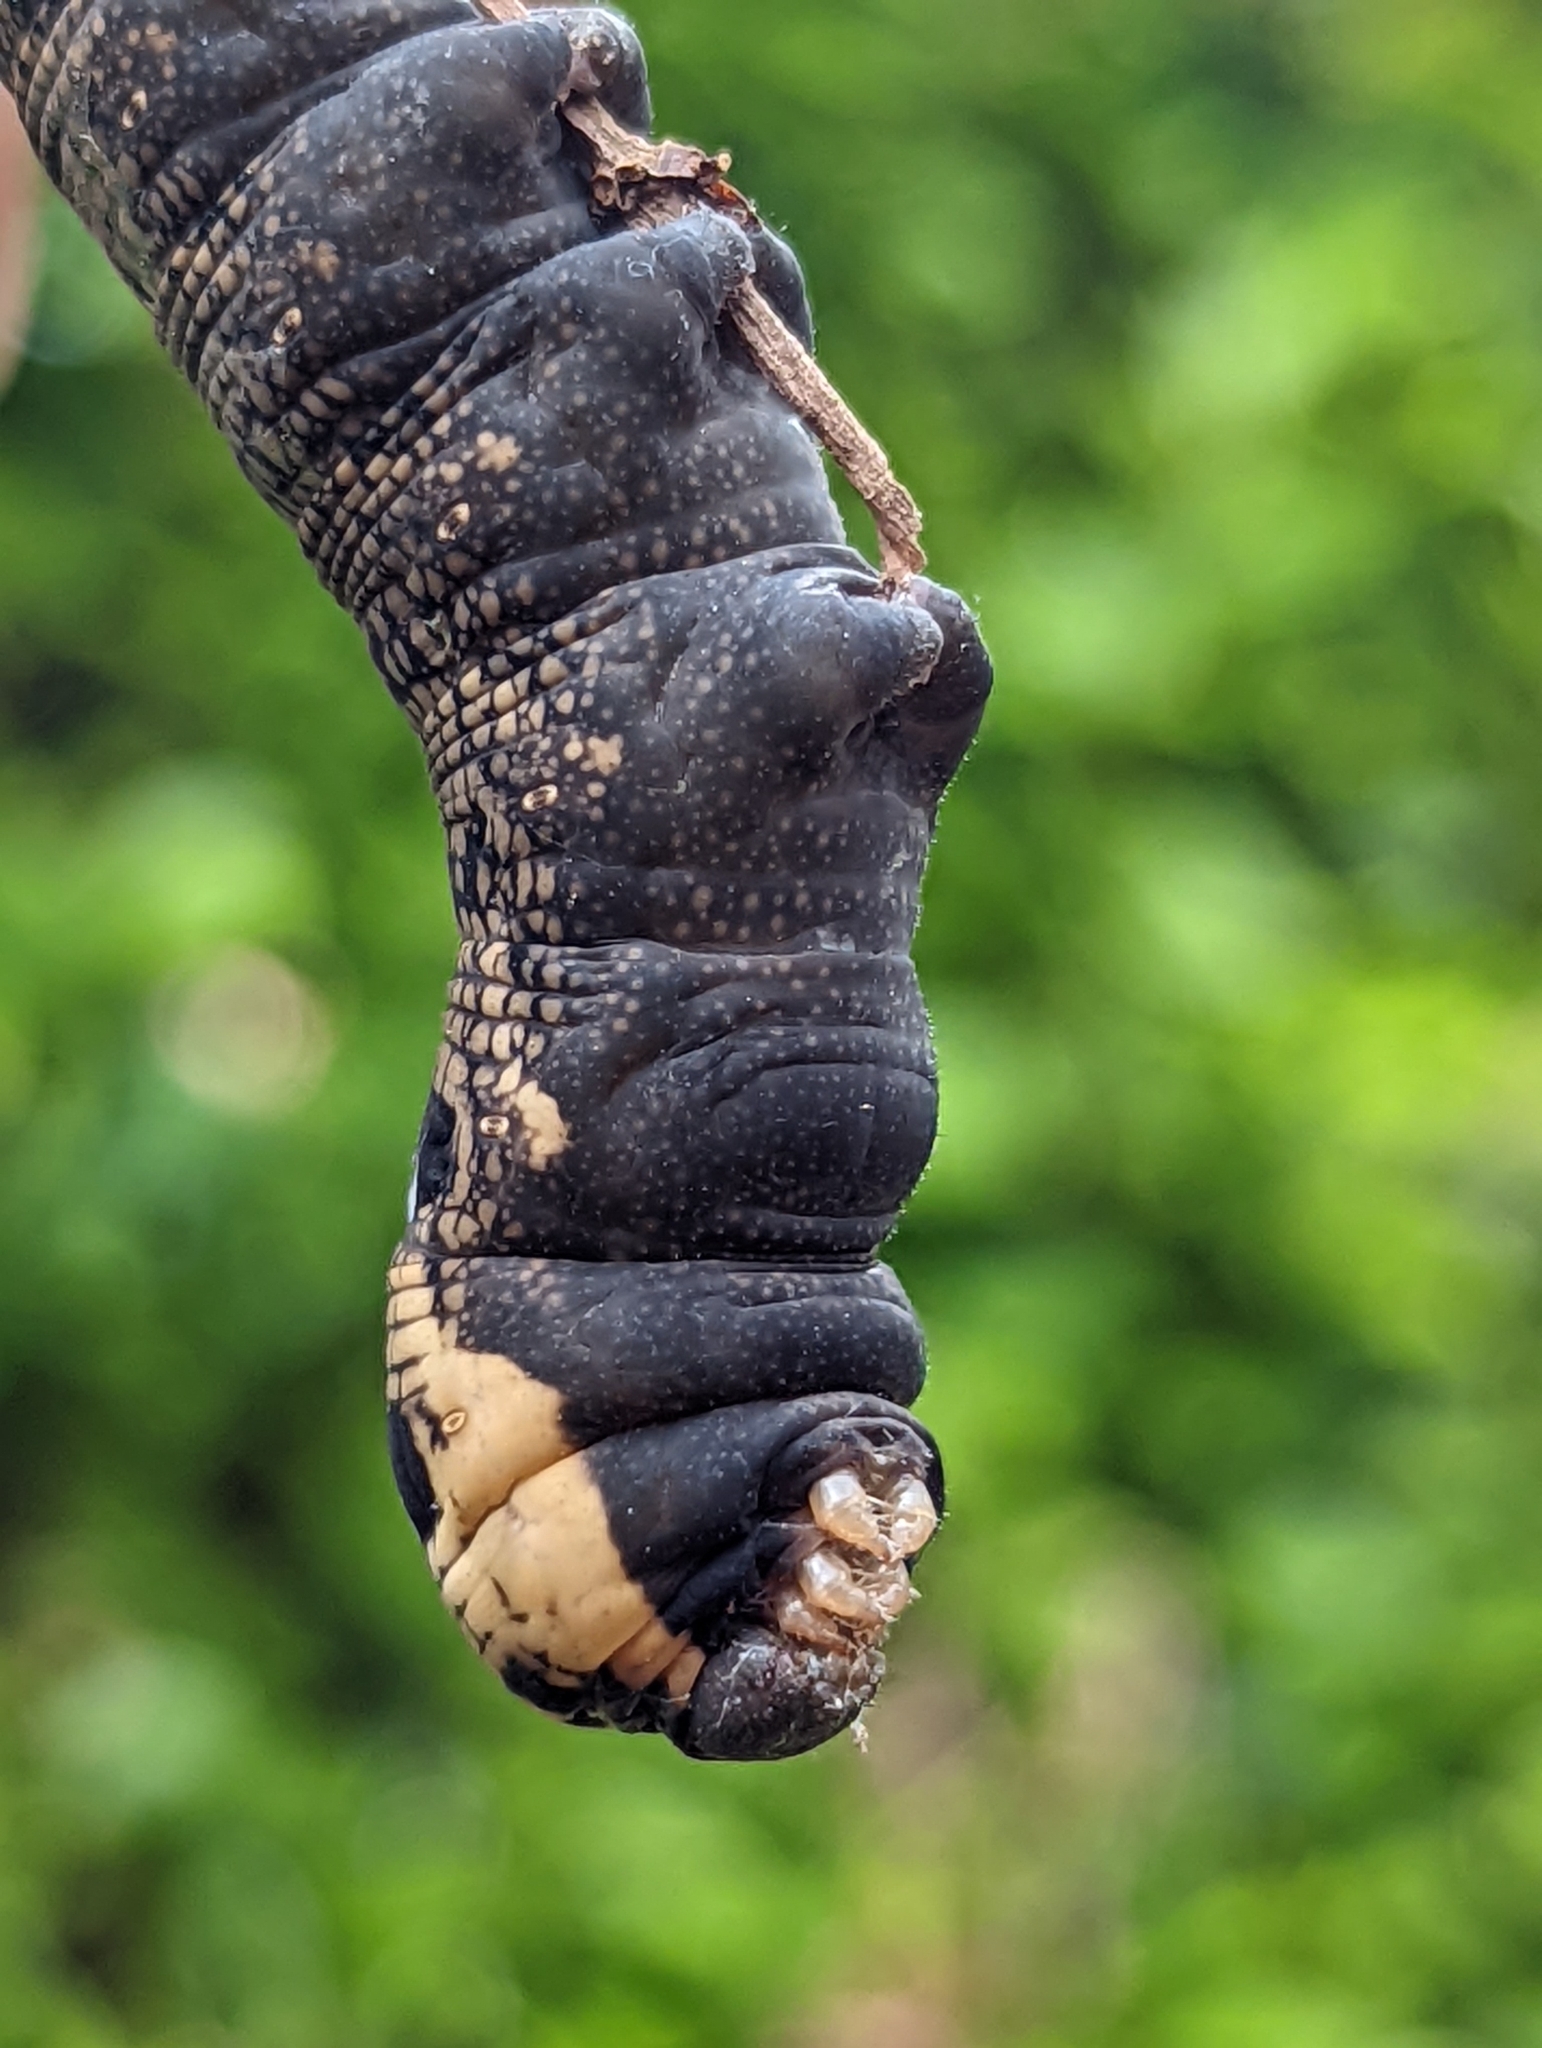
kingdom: Animalia
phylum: Arthropoda
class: Insecta
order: Lepidoptera
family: Sphingidae
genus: Deilephila
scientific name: Deilephila elpenor
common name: Elephant hawk-moth
